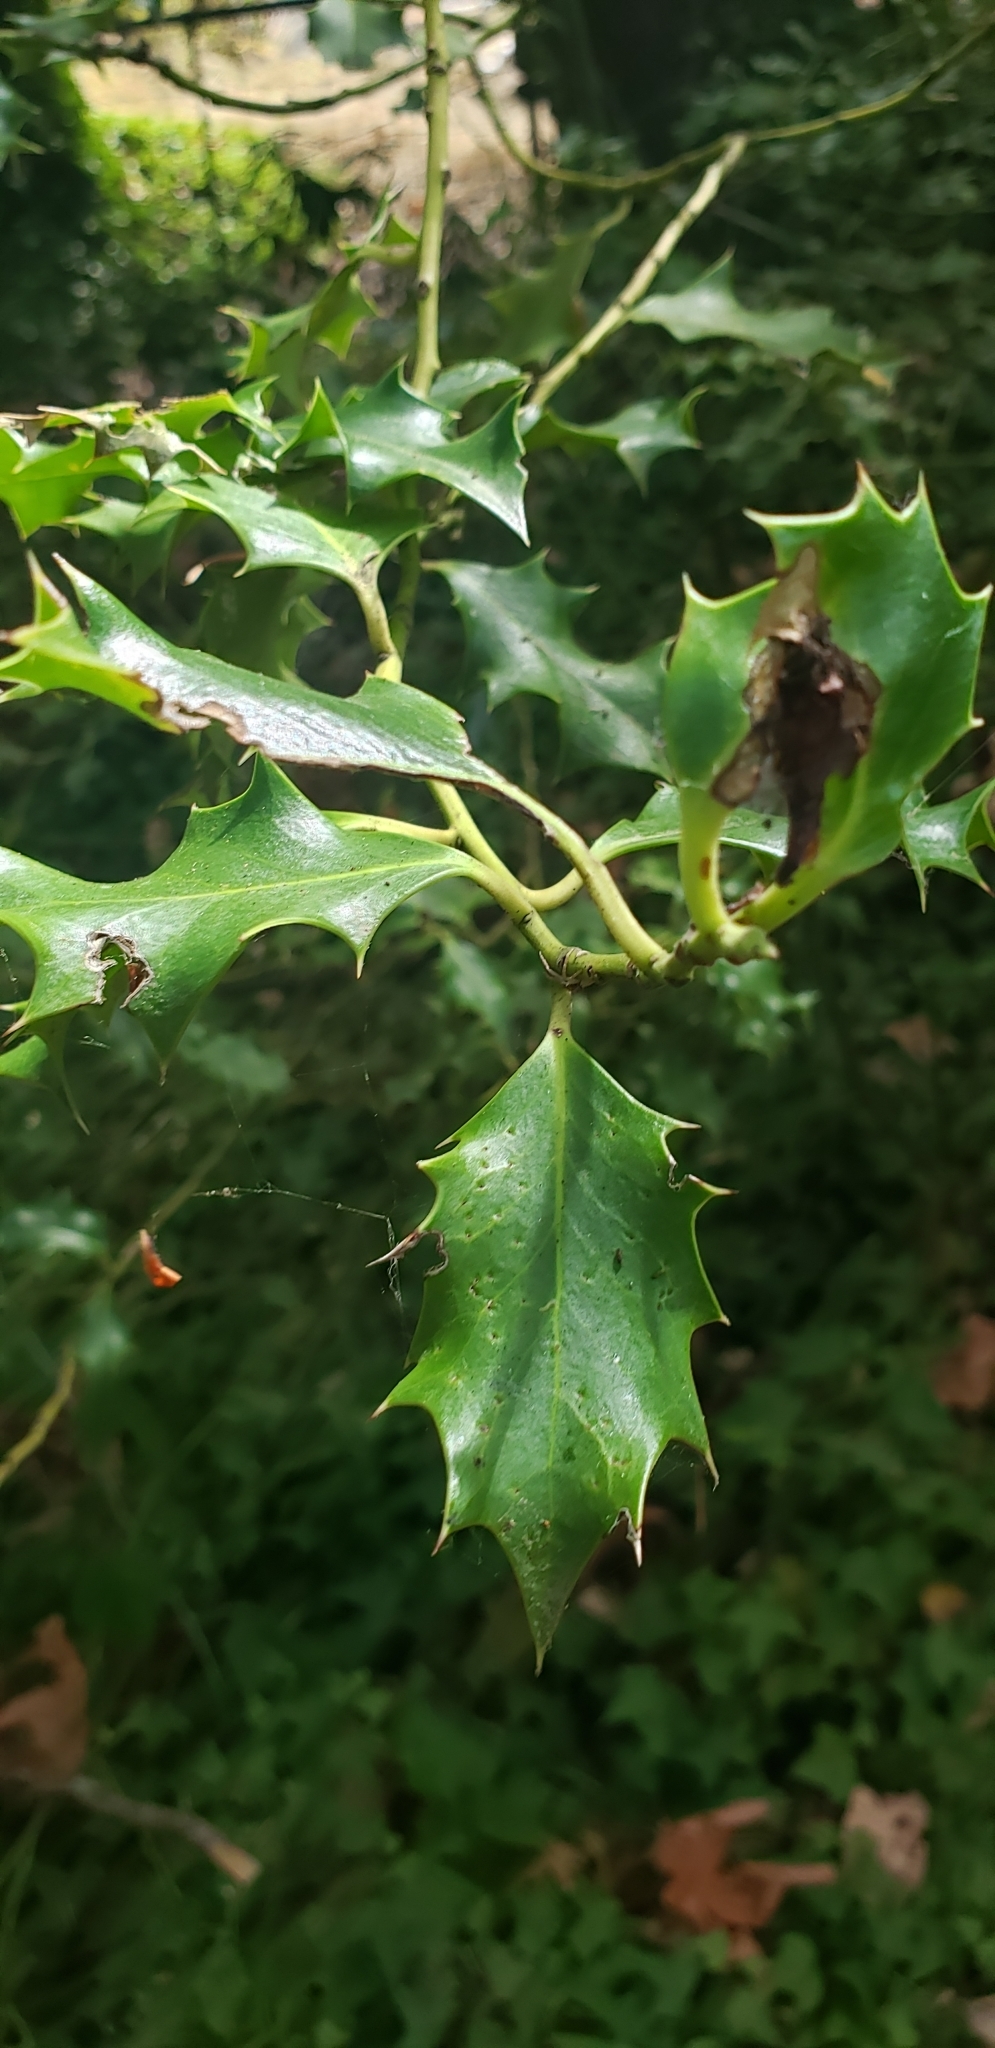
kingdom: Plantae
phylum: Tracheophyta
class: Magnoliopsida
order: Aquifoliales
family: Aquifoliaceae
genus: Ilex
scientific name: Ilex aquifolium
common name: English holly
